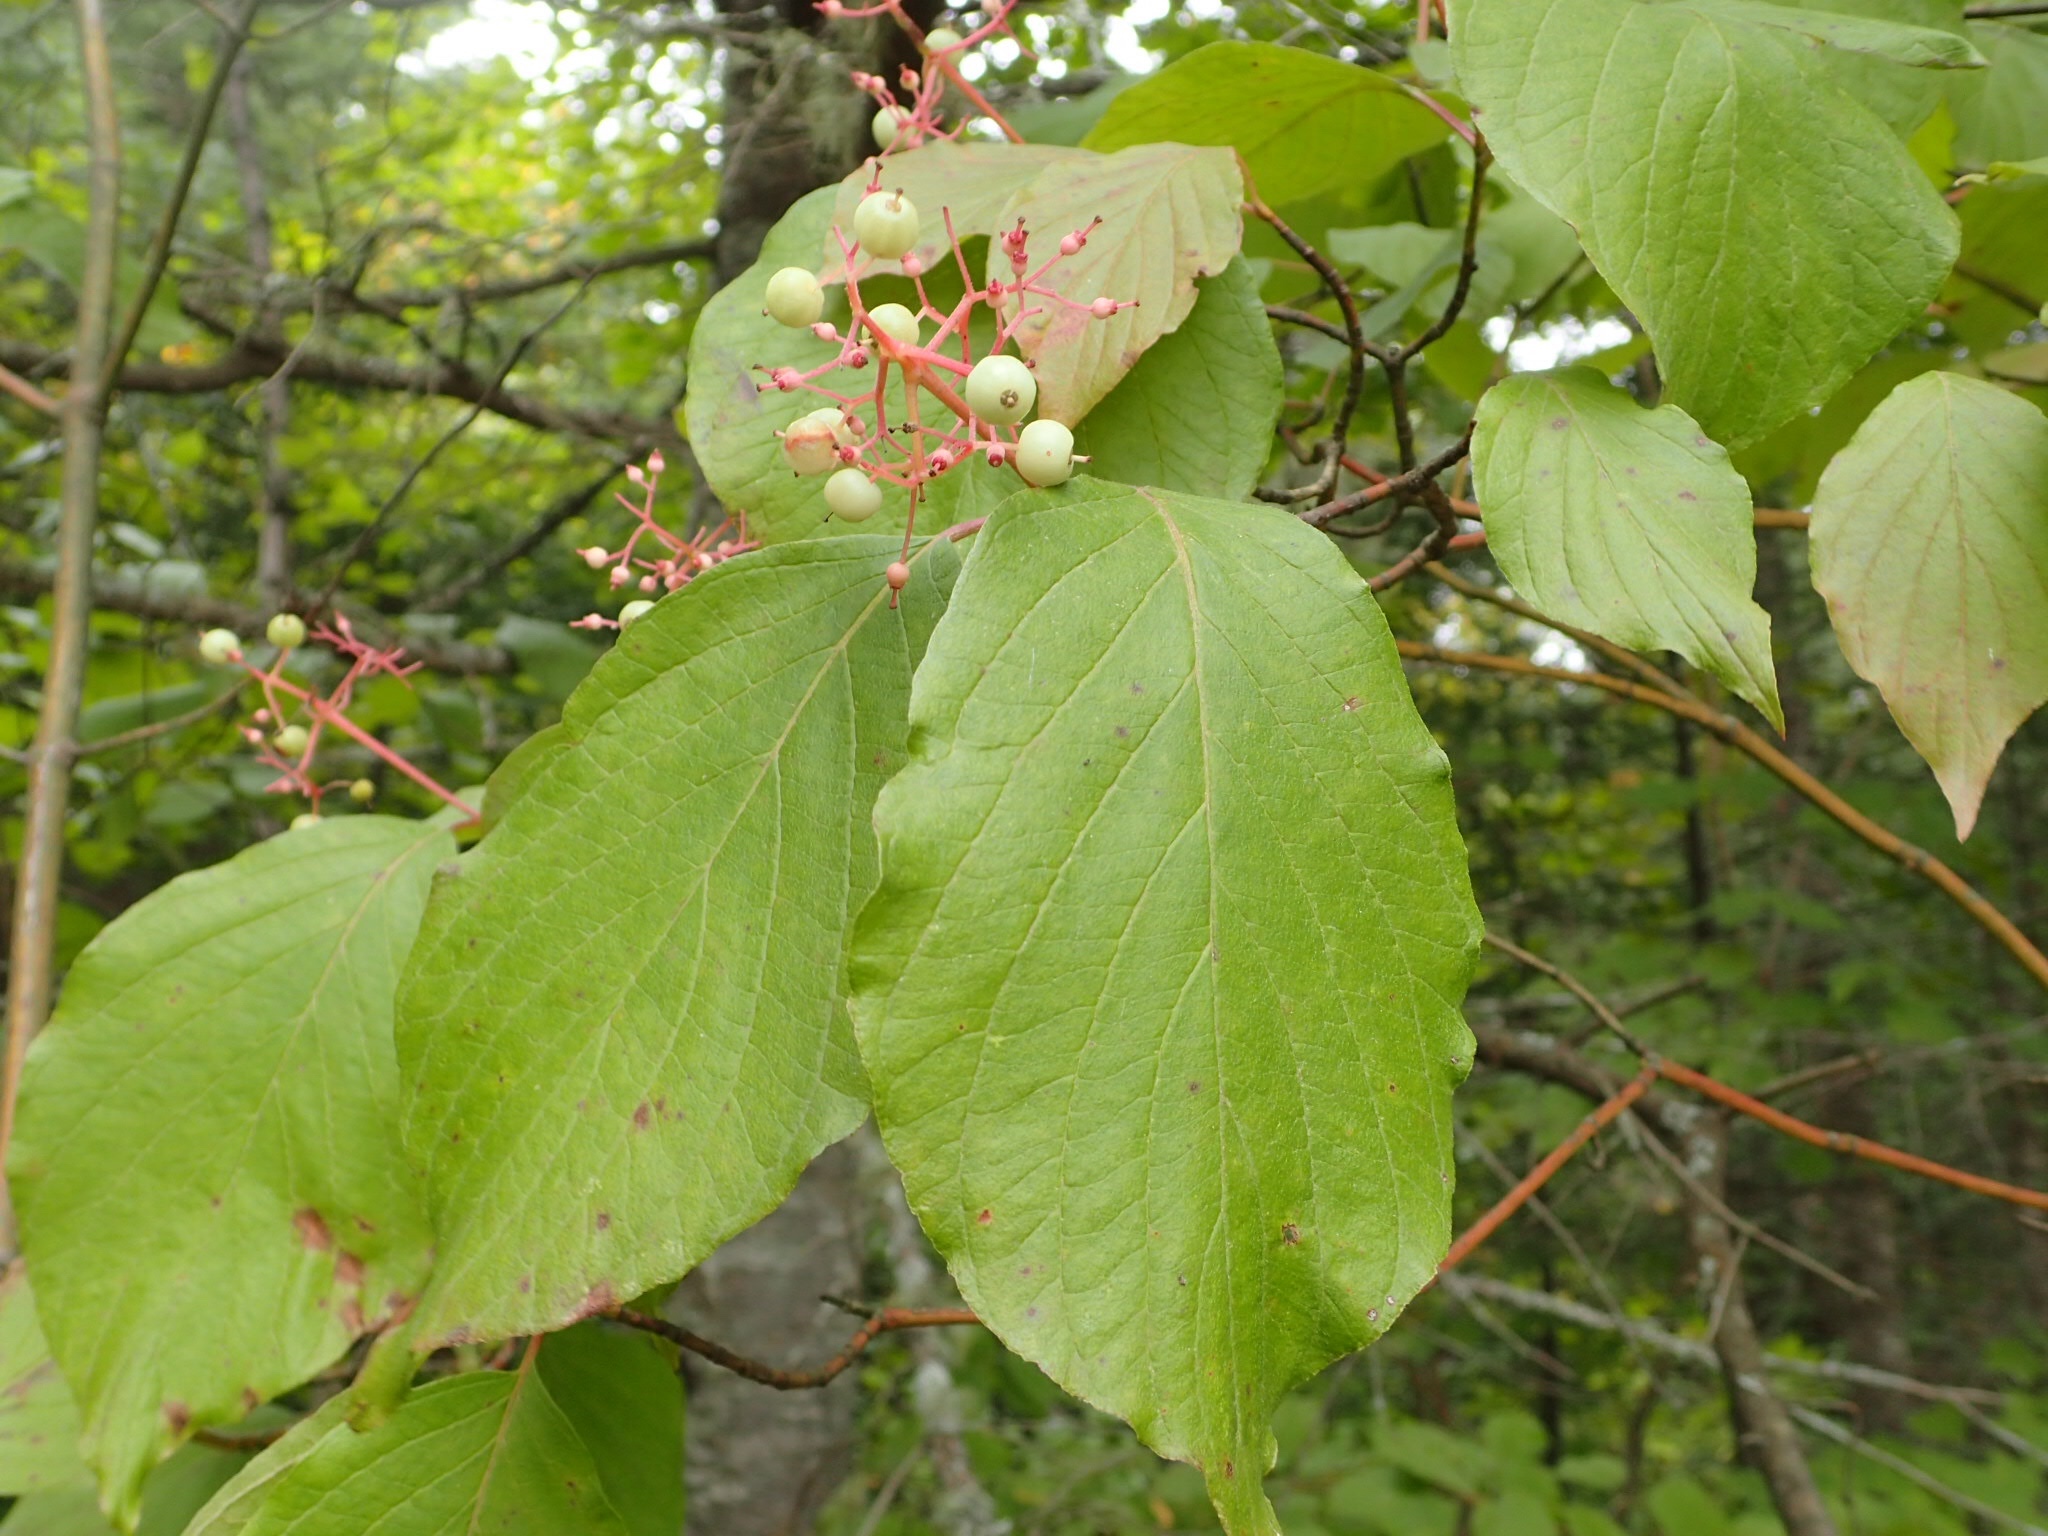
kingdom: Plantae
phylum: Tracheophyta
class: Magnoliopsida
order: Cornales
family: Cornaceae
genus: Cornus
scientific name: Cornus rugosa
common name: Round-leaf dogwood
